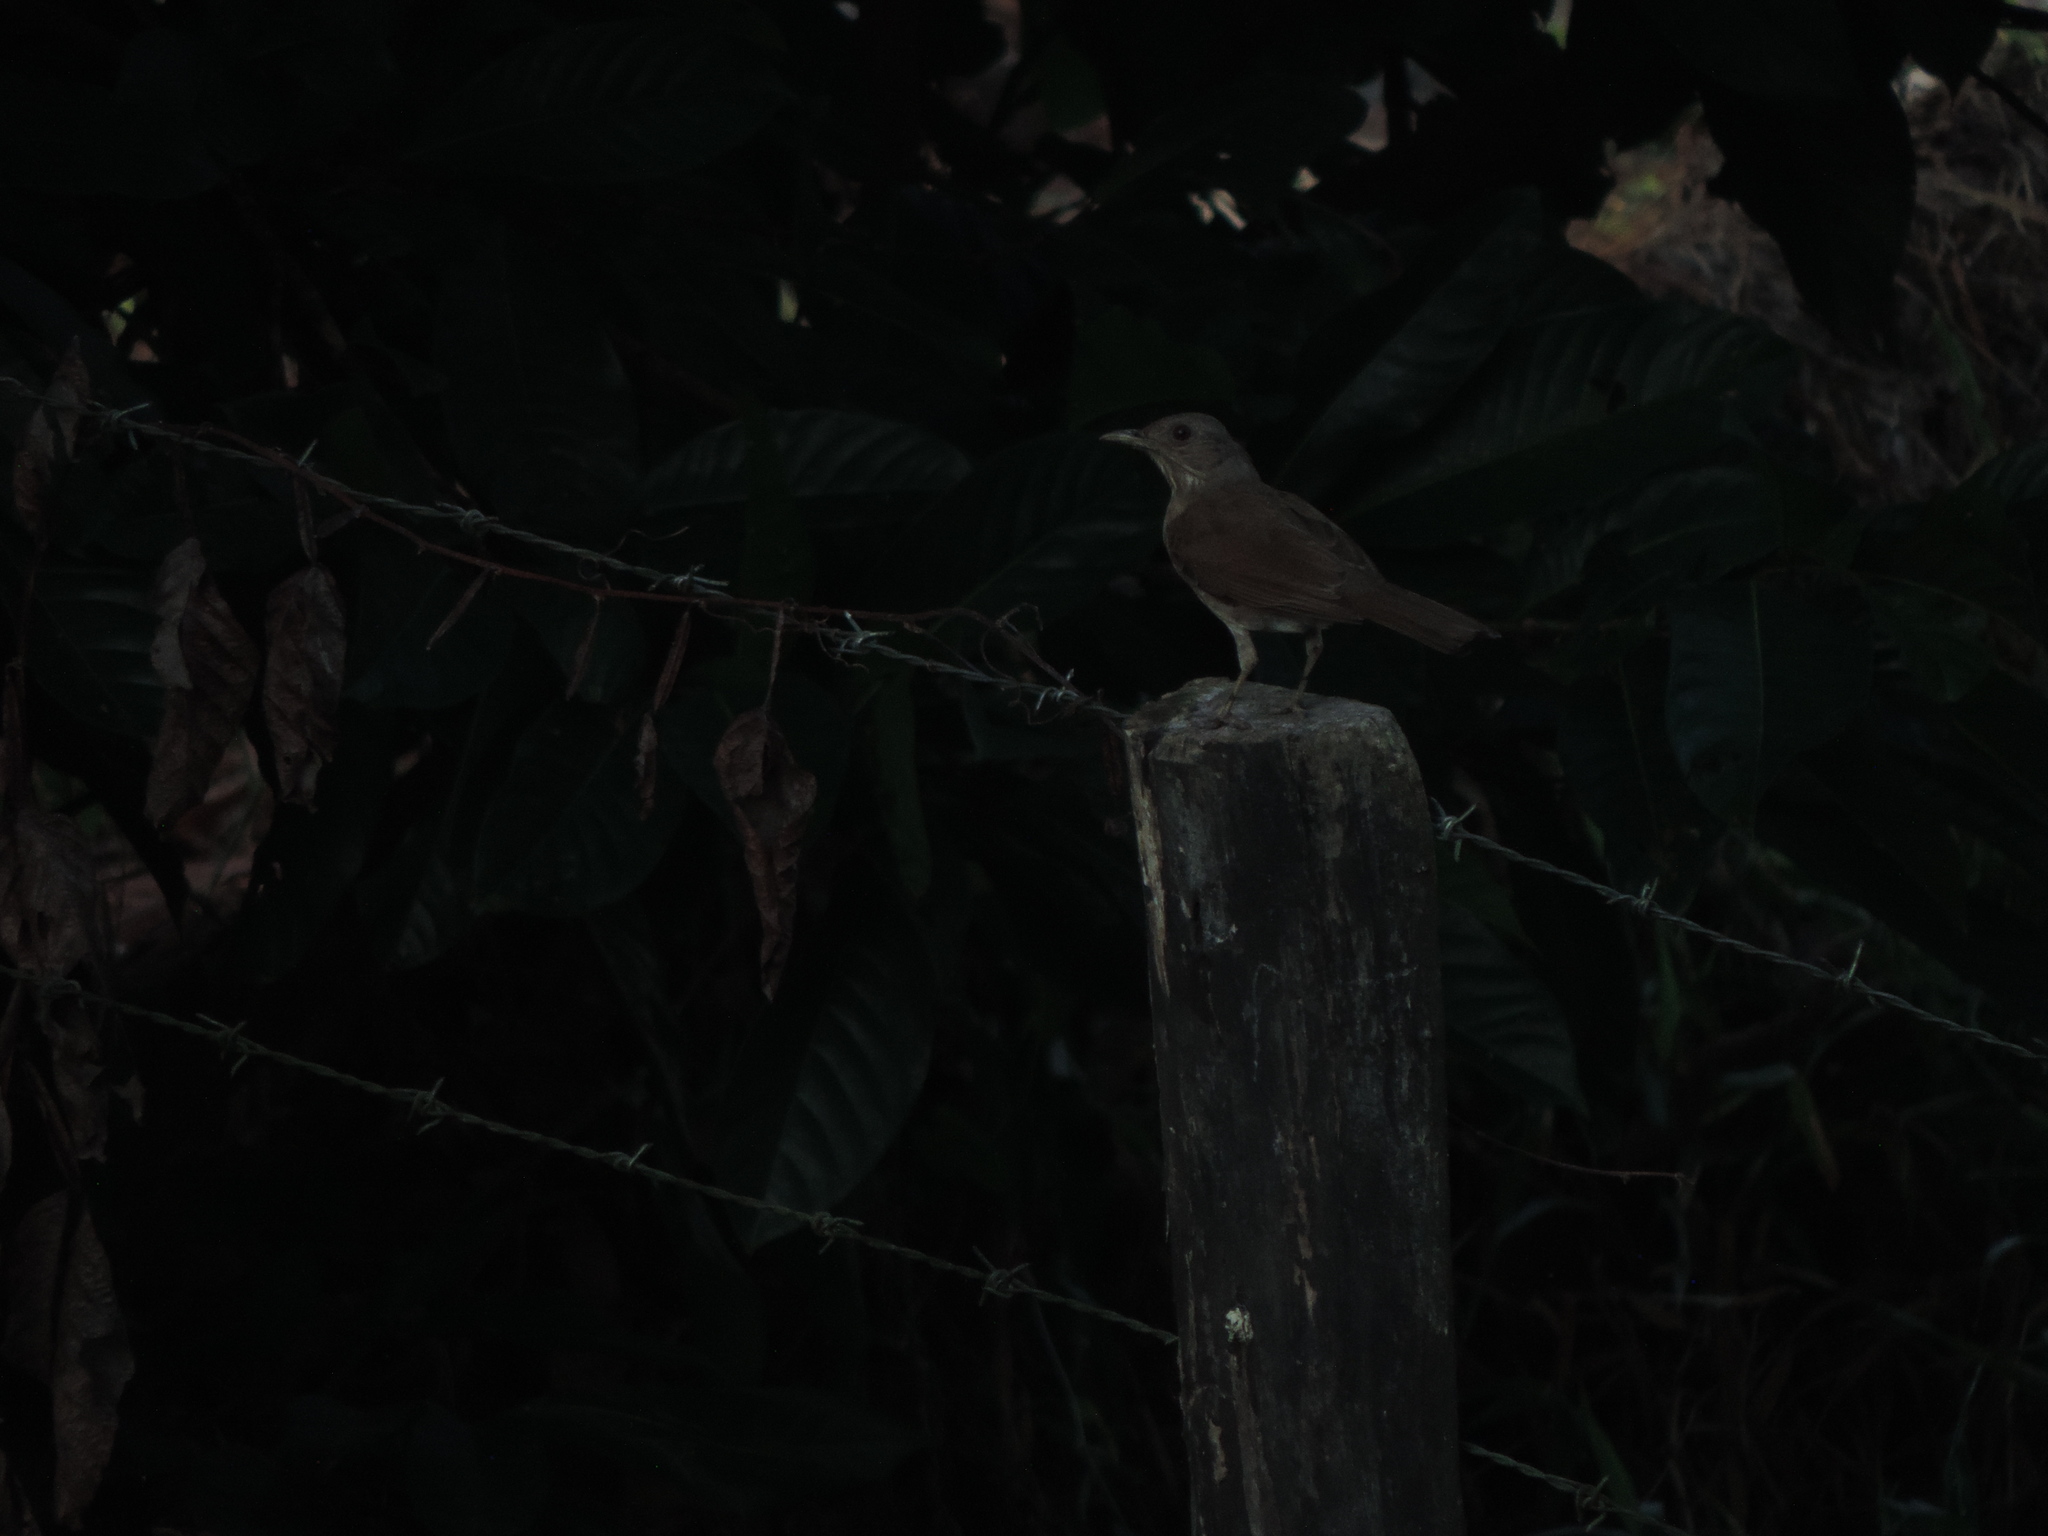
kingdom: Animalia
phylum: Chordata
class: Aves
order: Passeriformes
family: Turdidae
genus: Turdus
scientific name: Turdus leucomelas
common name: Pale-breasted thrush
